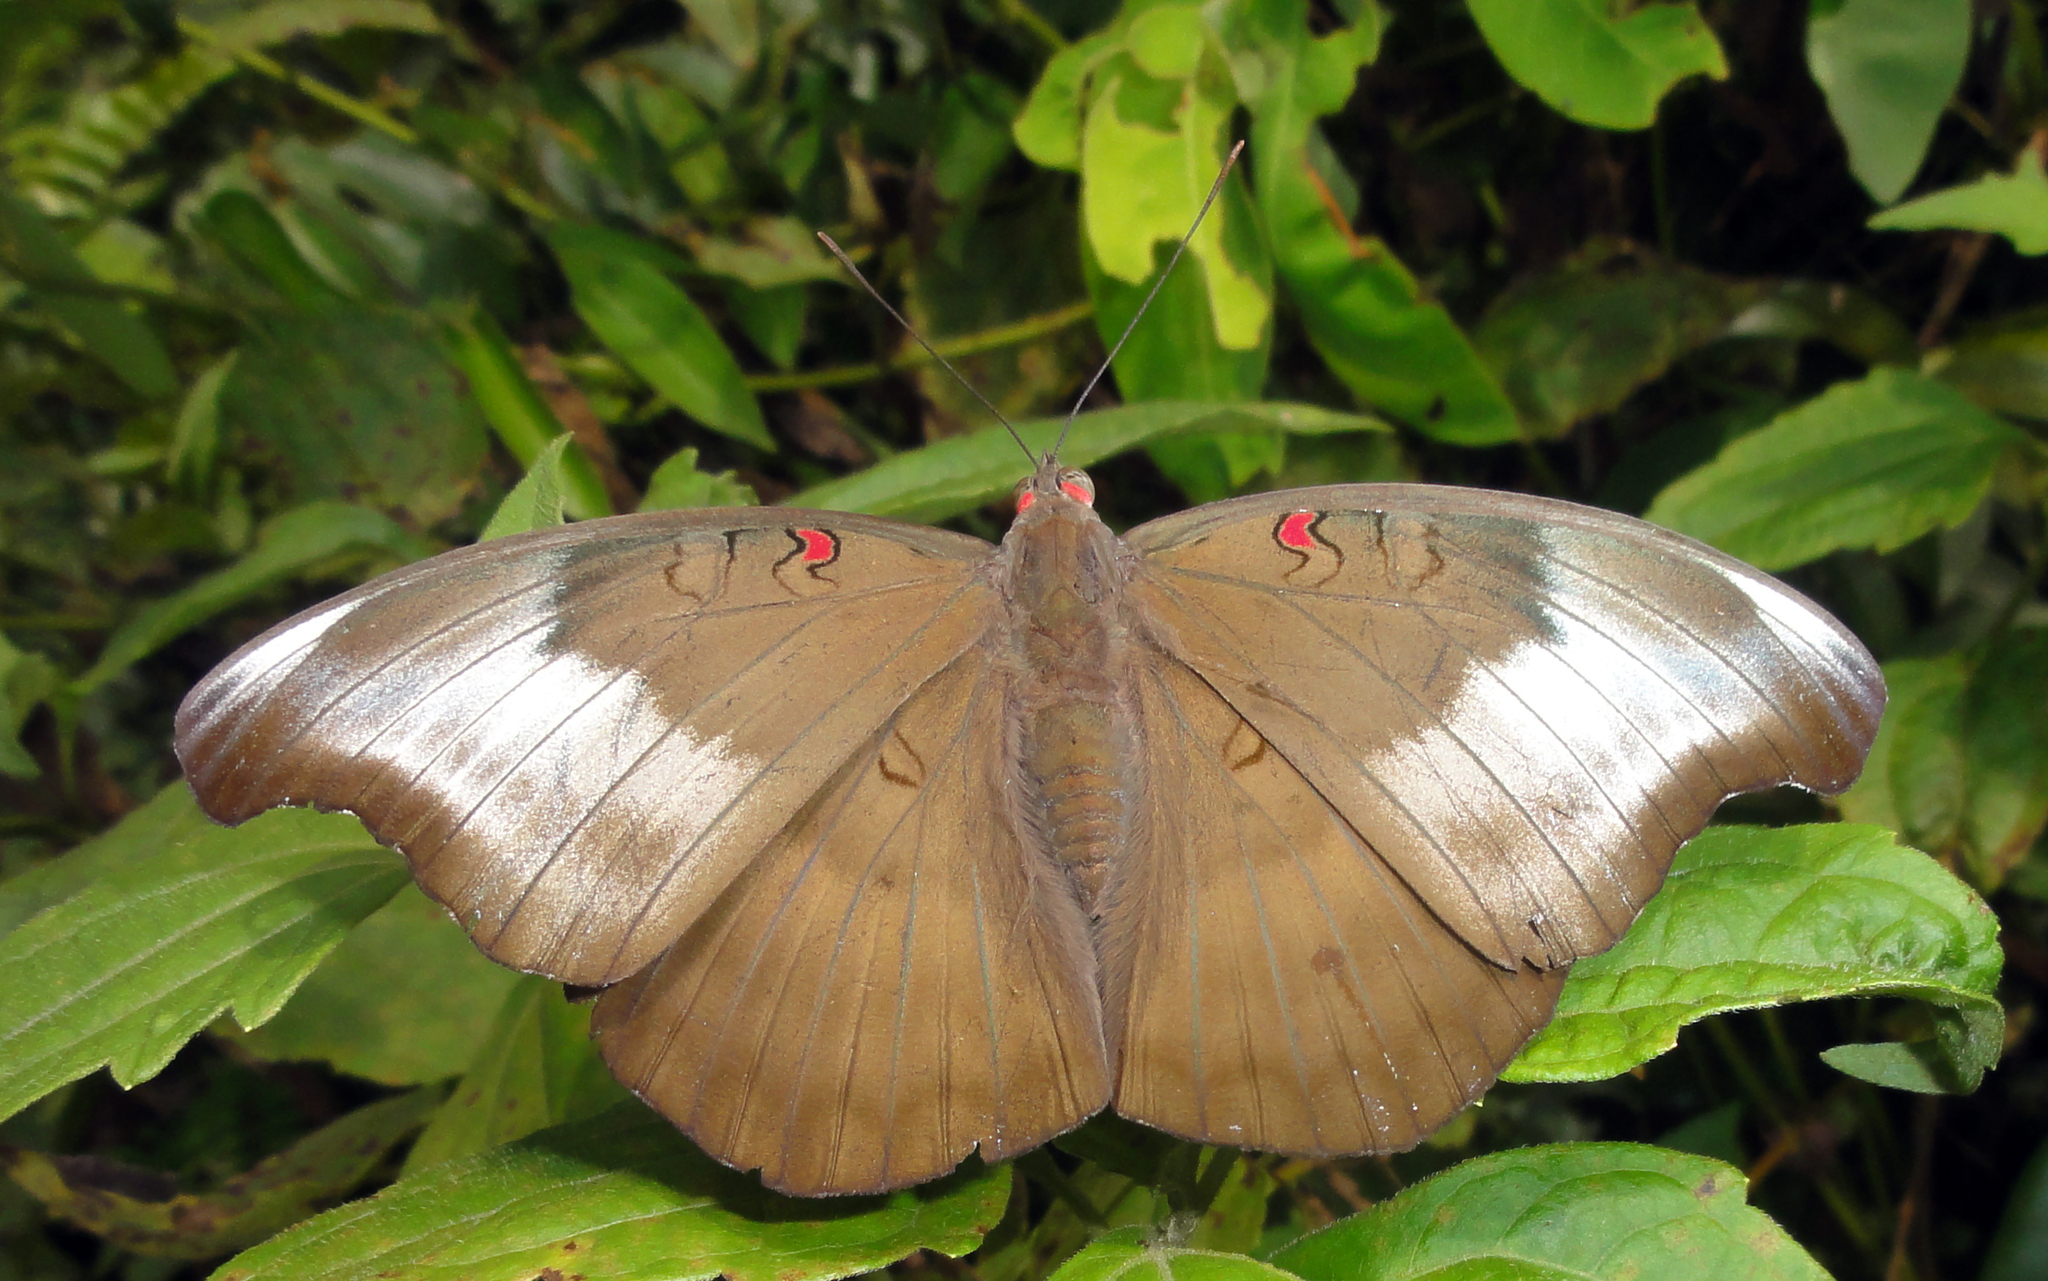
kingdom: Animalia
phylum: Arthropoda
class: Insecta
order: Lepidoptera
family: Nymphalidae
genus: Euthalia
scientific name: Euthalia Dophla evelina
